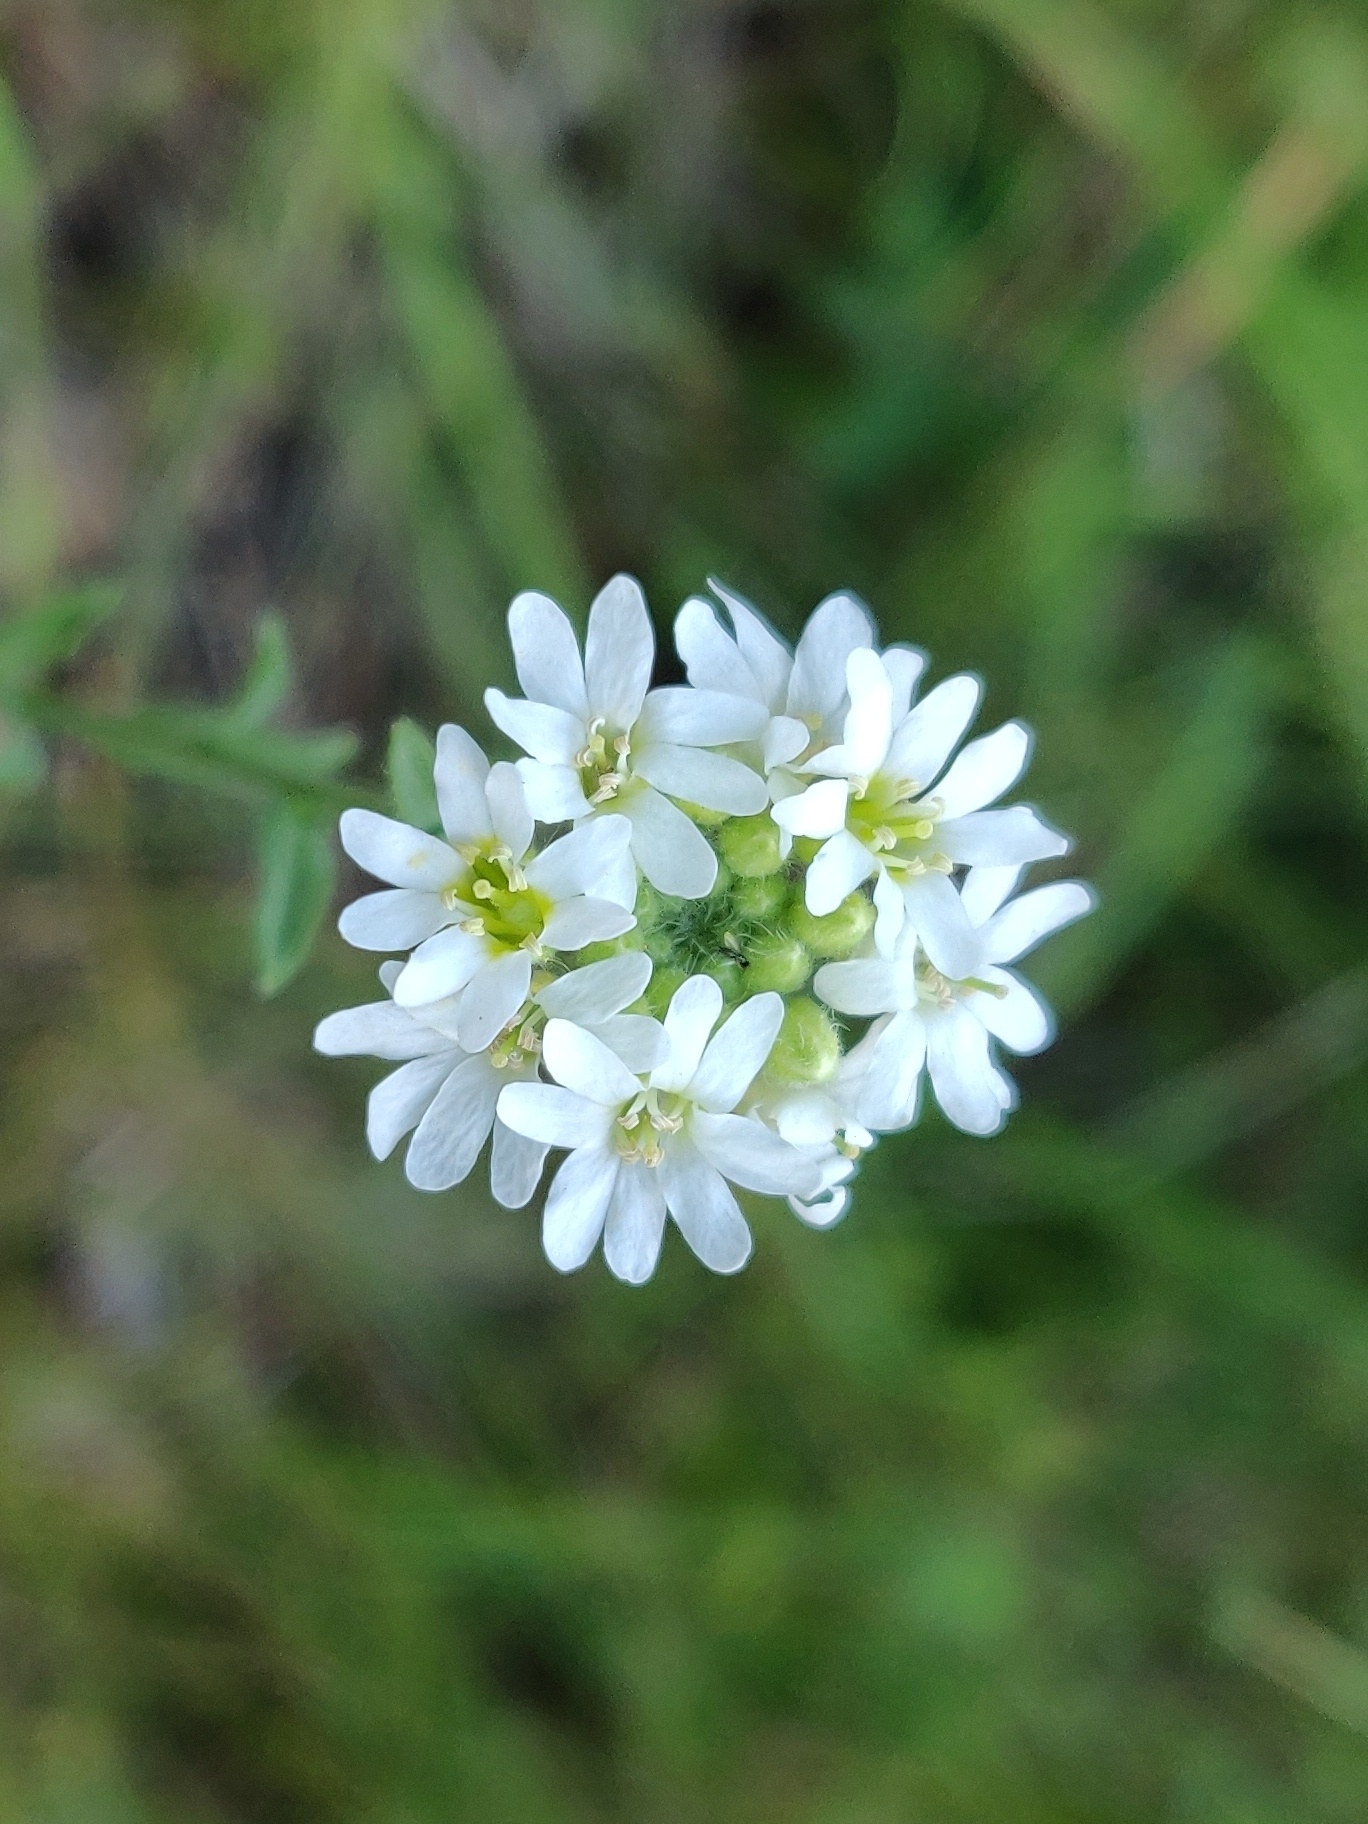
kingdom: Plantae
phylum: Tracheophyta
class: Magnoliopsida
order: Brassicales
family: Brassicaceae
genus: Berteroa
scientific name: Berteroa incana
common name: Hoary alison
